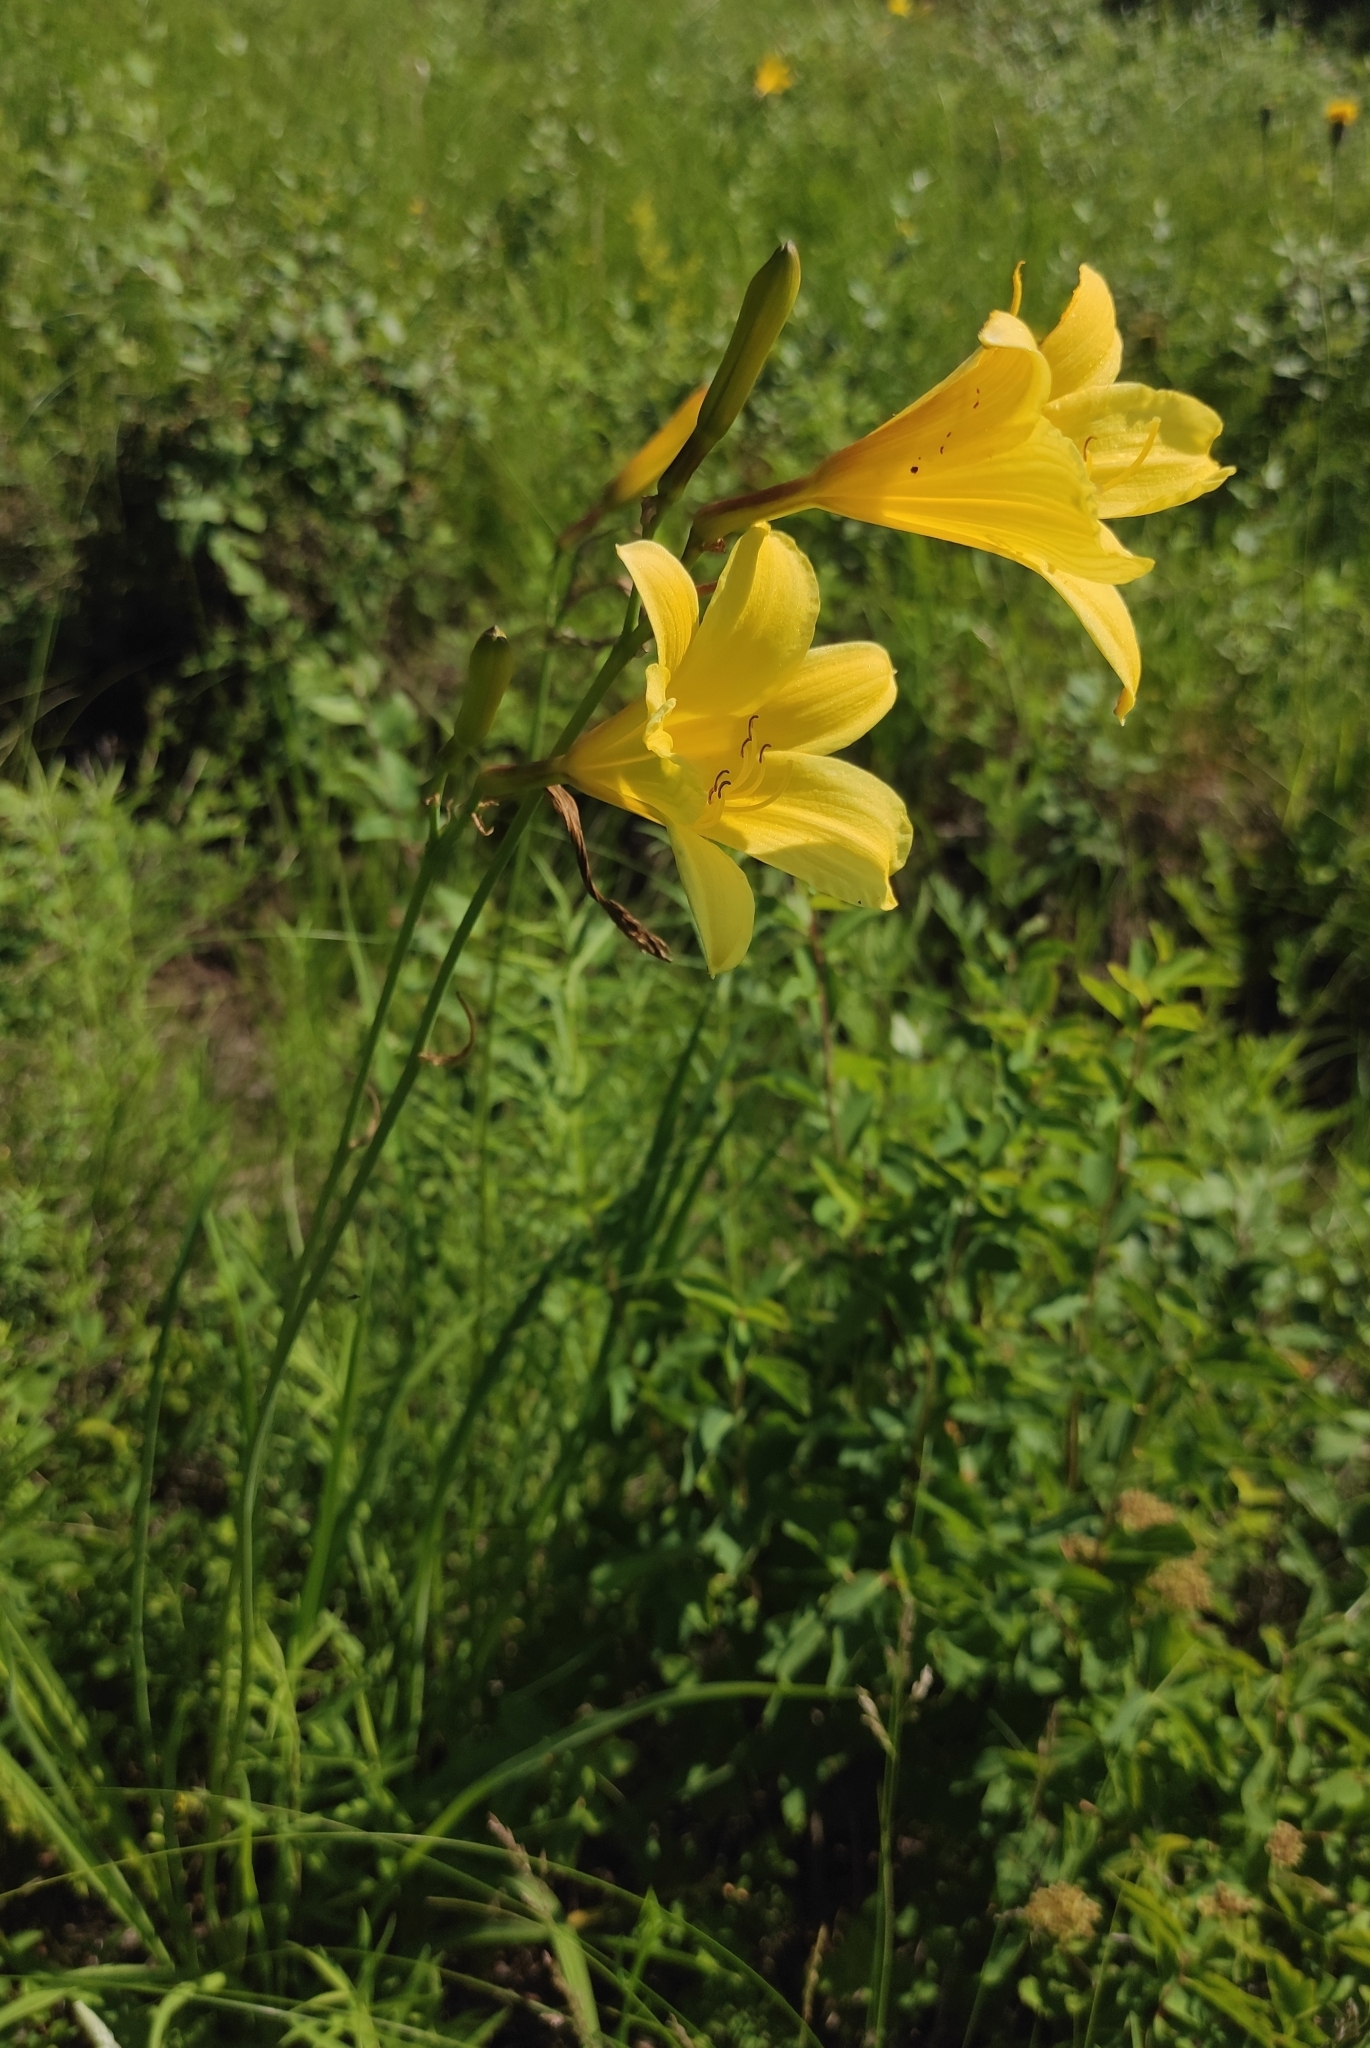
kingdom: Plantae
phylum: Tracheophyta
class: Liliopsida
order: Asparagales
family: Asphodelaceae
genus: Hemerocallis
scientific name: Hemerocallis minor
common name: Small daylily
